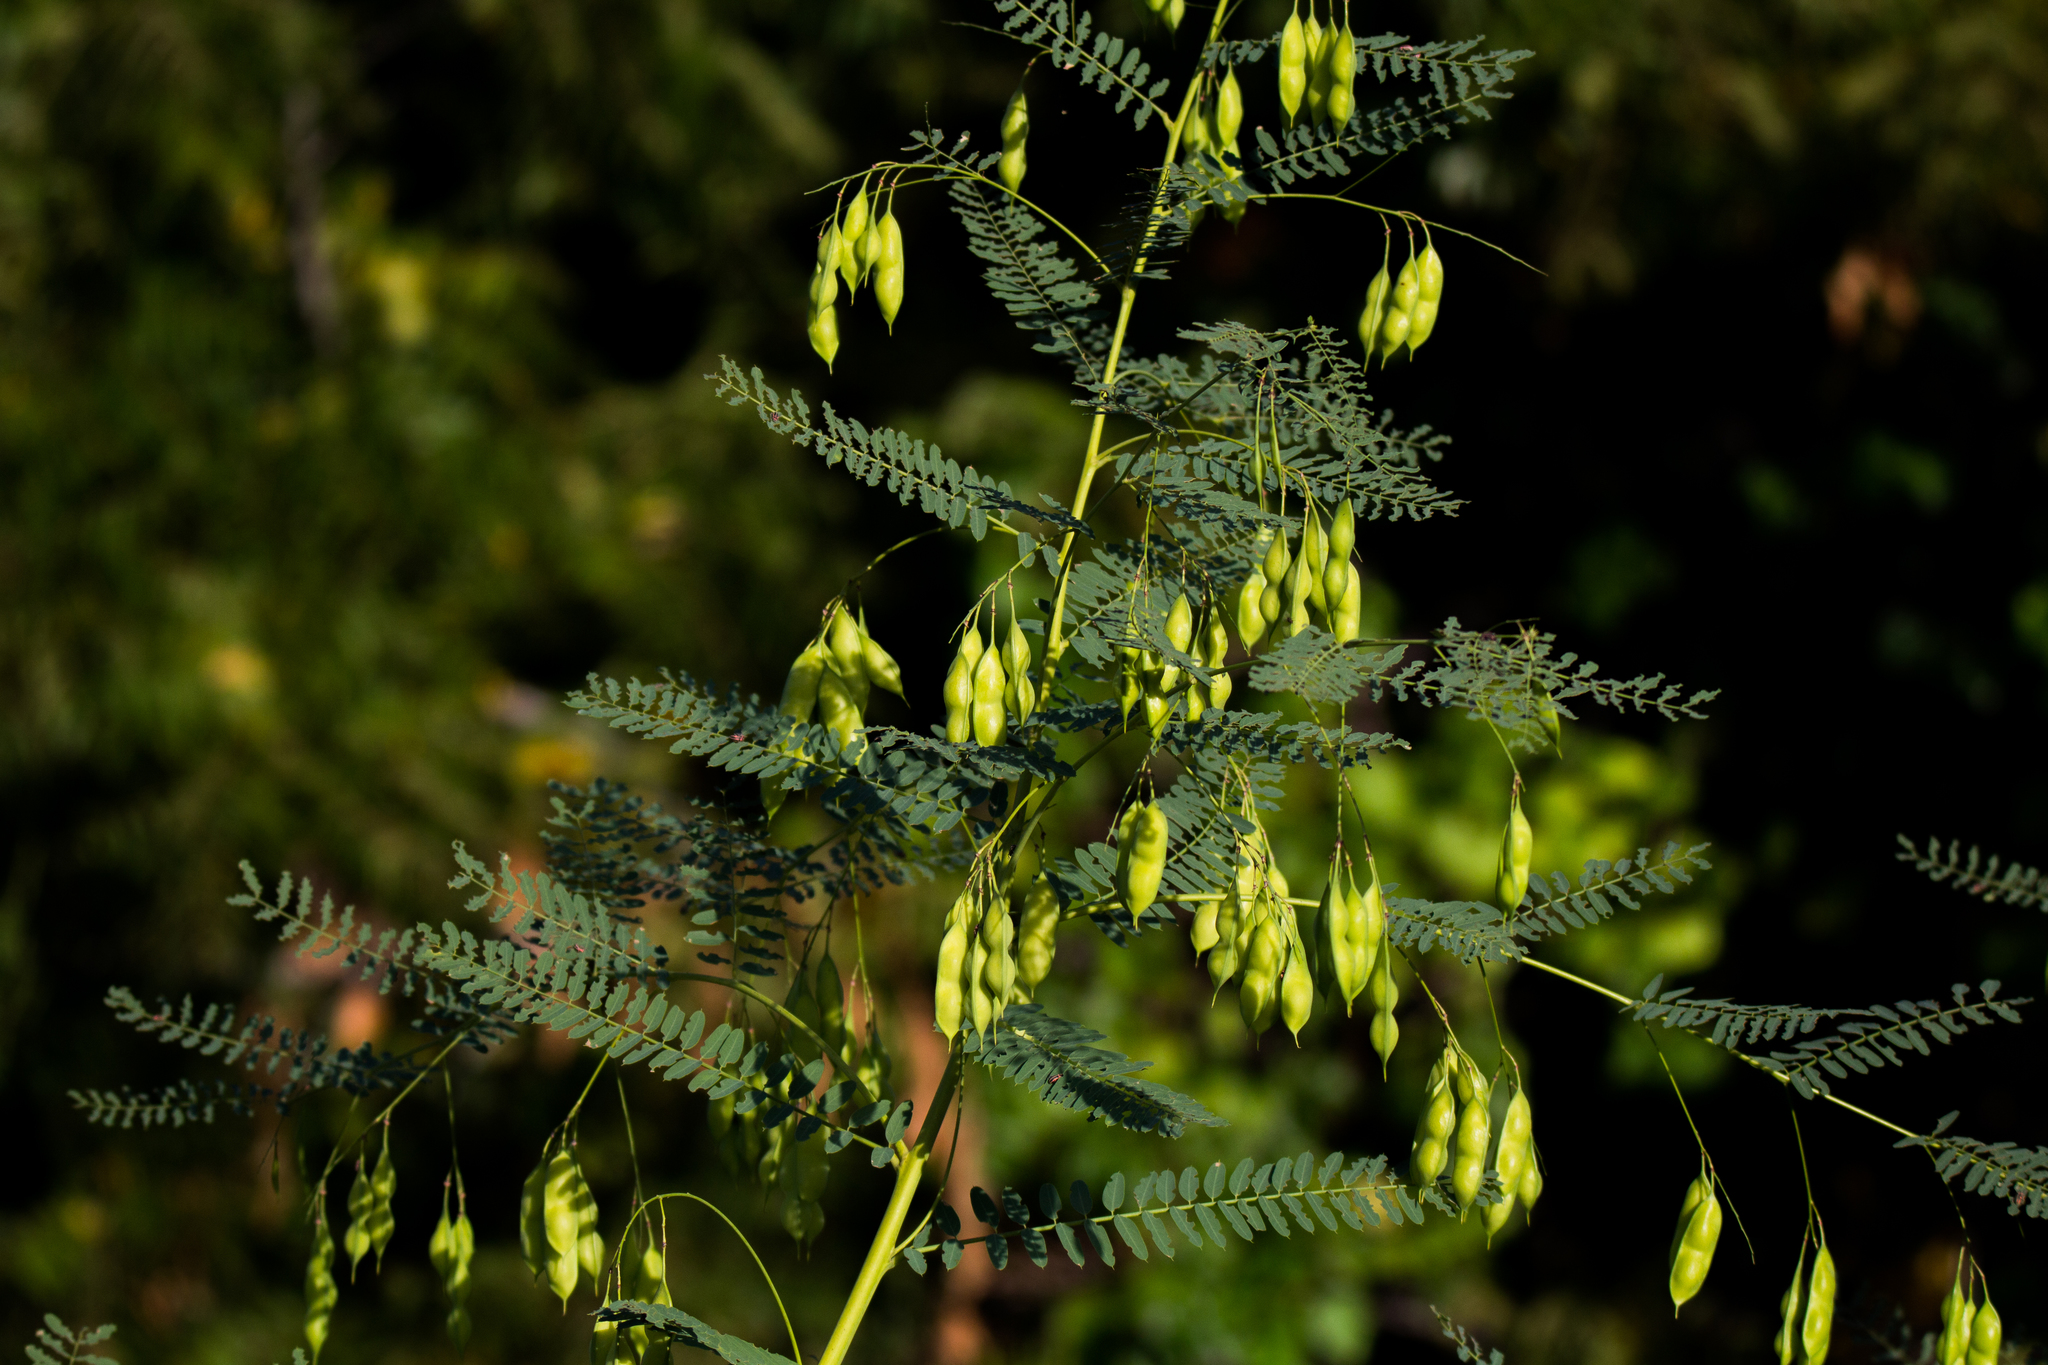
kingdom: Plantae
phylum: Tracheophyta
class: Magnoliopsida
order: Fabales
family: Fabaceae
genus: Sesbania
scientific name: Sesbania vesicaria
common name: Bagpod
